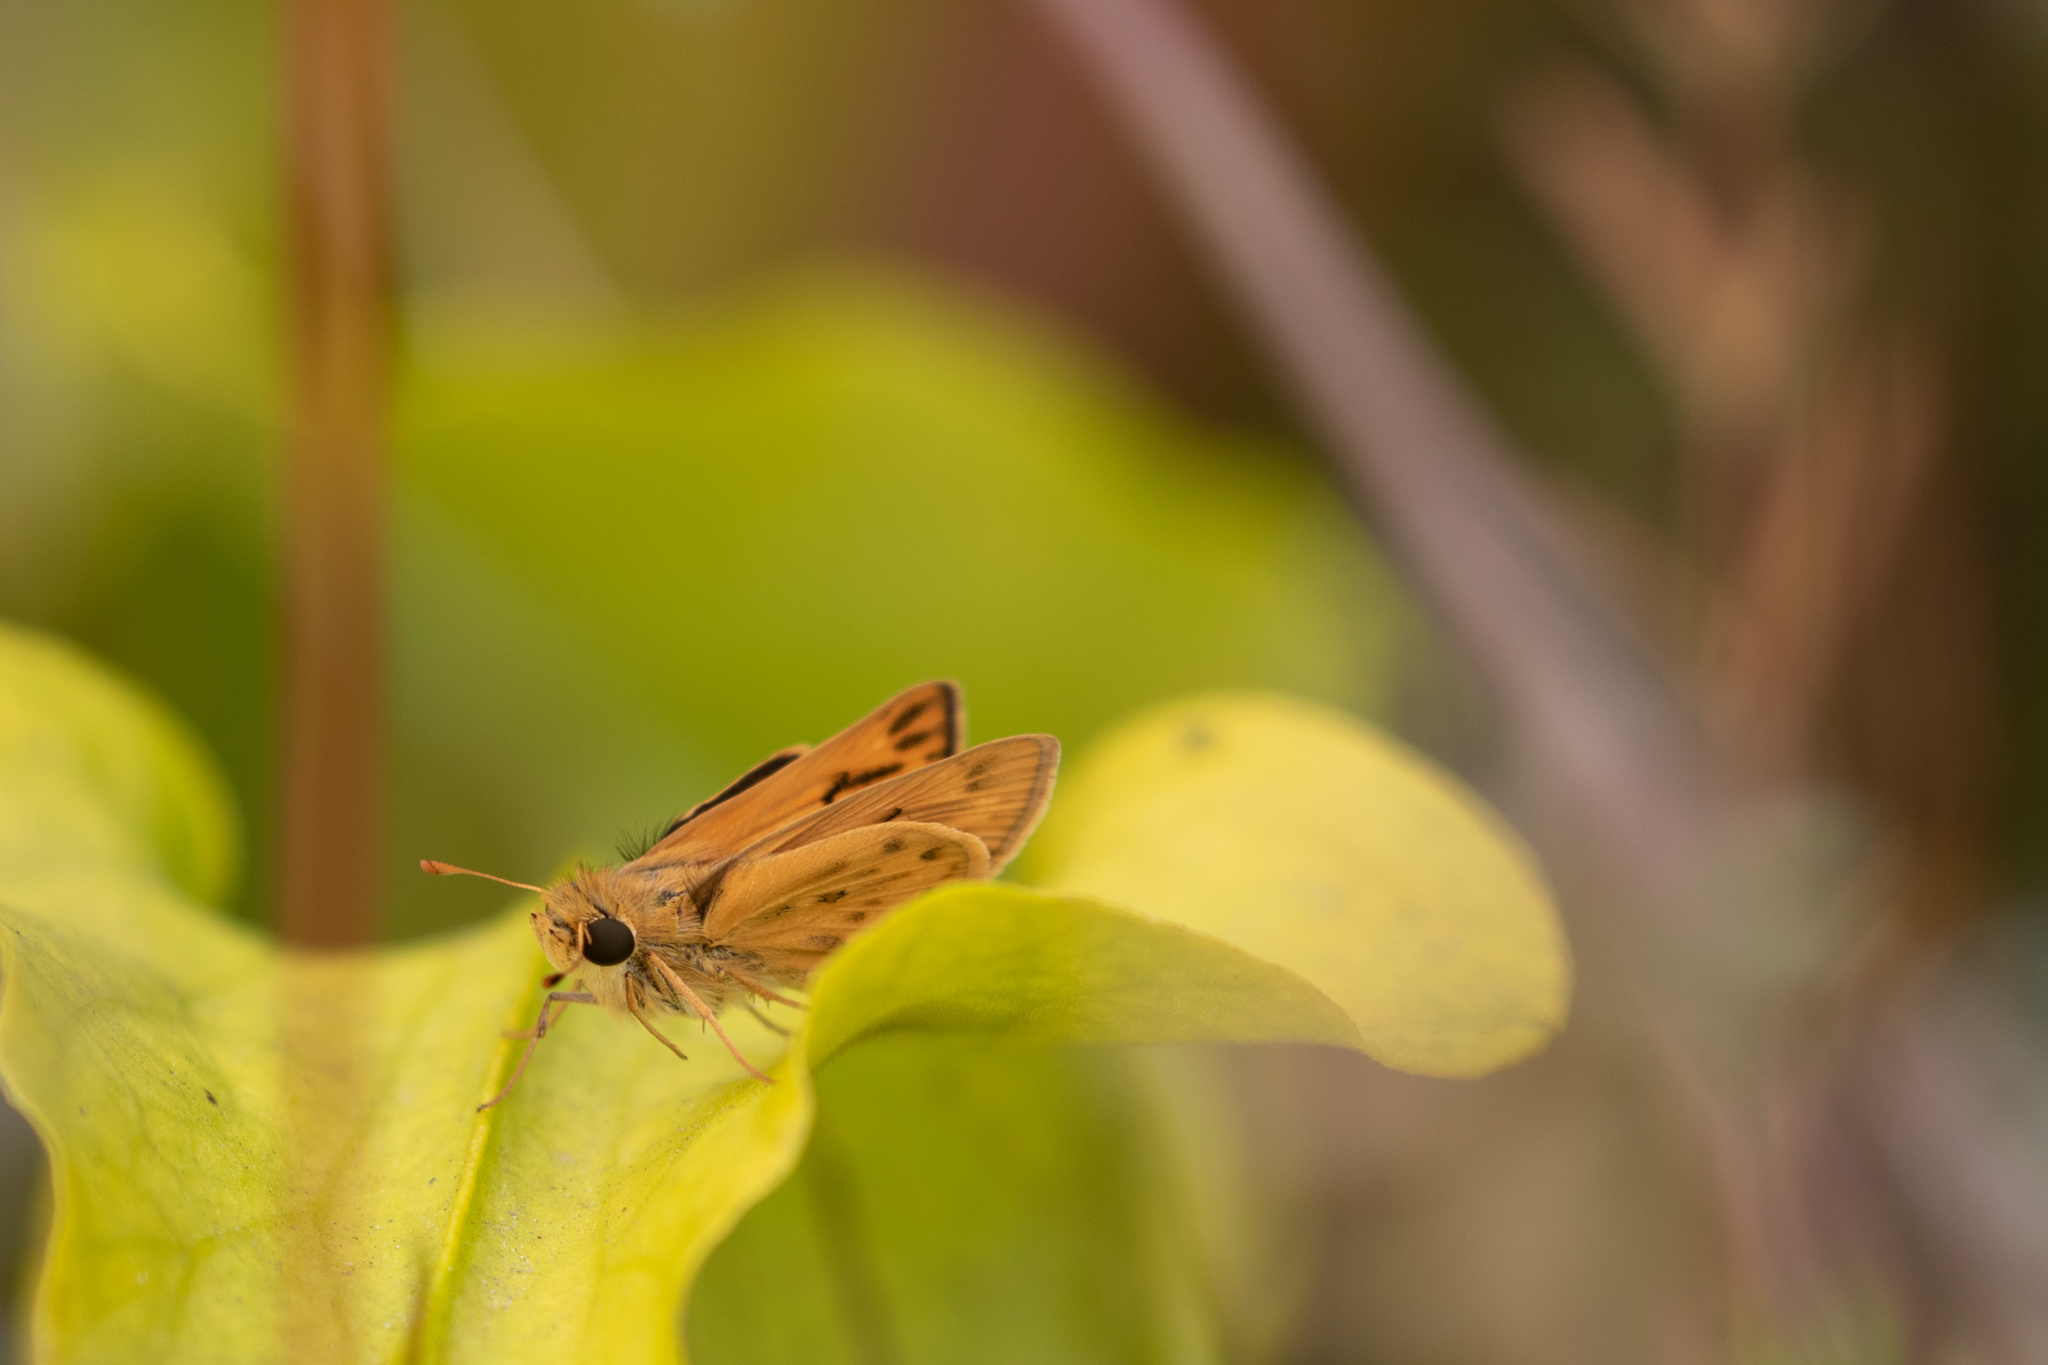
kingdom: Animalia
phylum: Arthropoda
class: Insecta
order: Lepidoptera
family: Hesperiidae
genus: Hylephila
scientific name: Hylephila phyleus
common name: Fiery skipper
